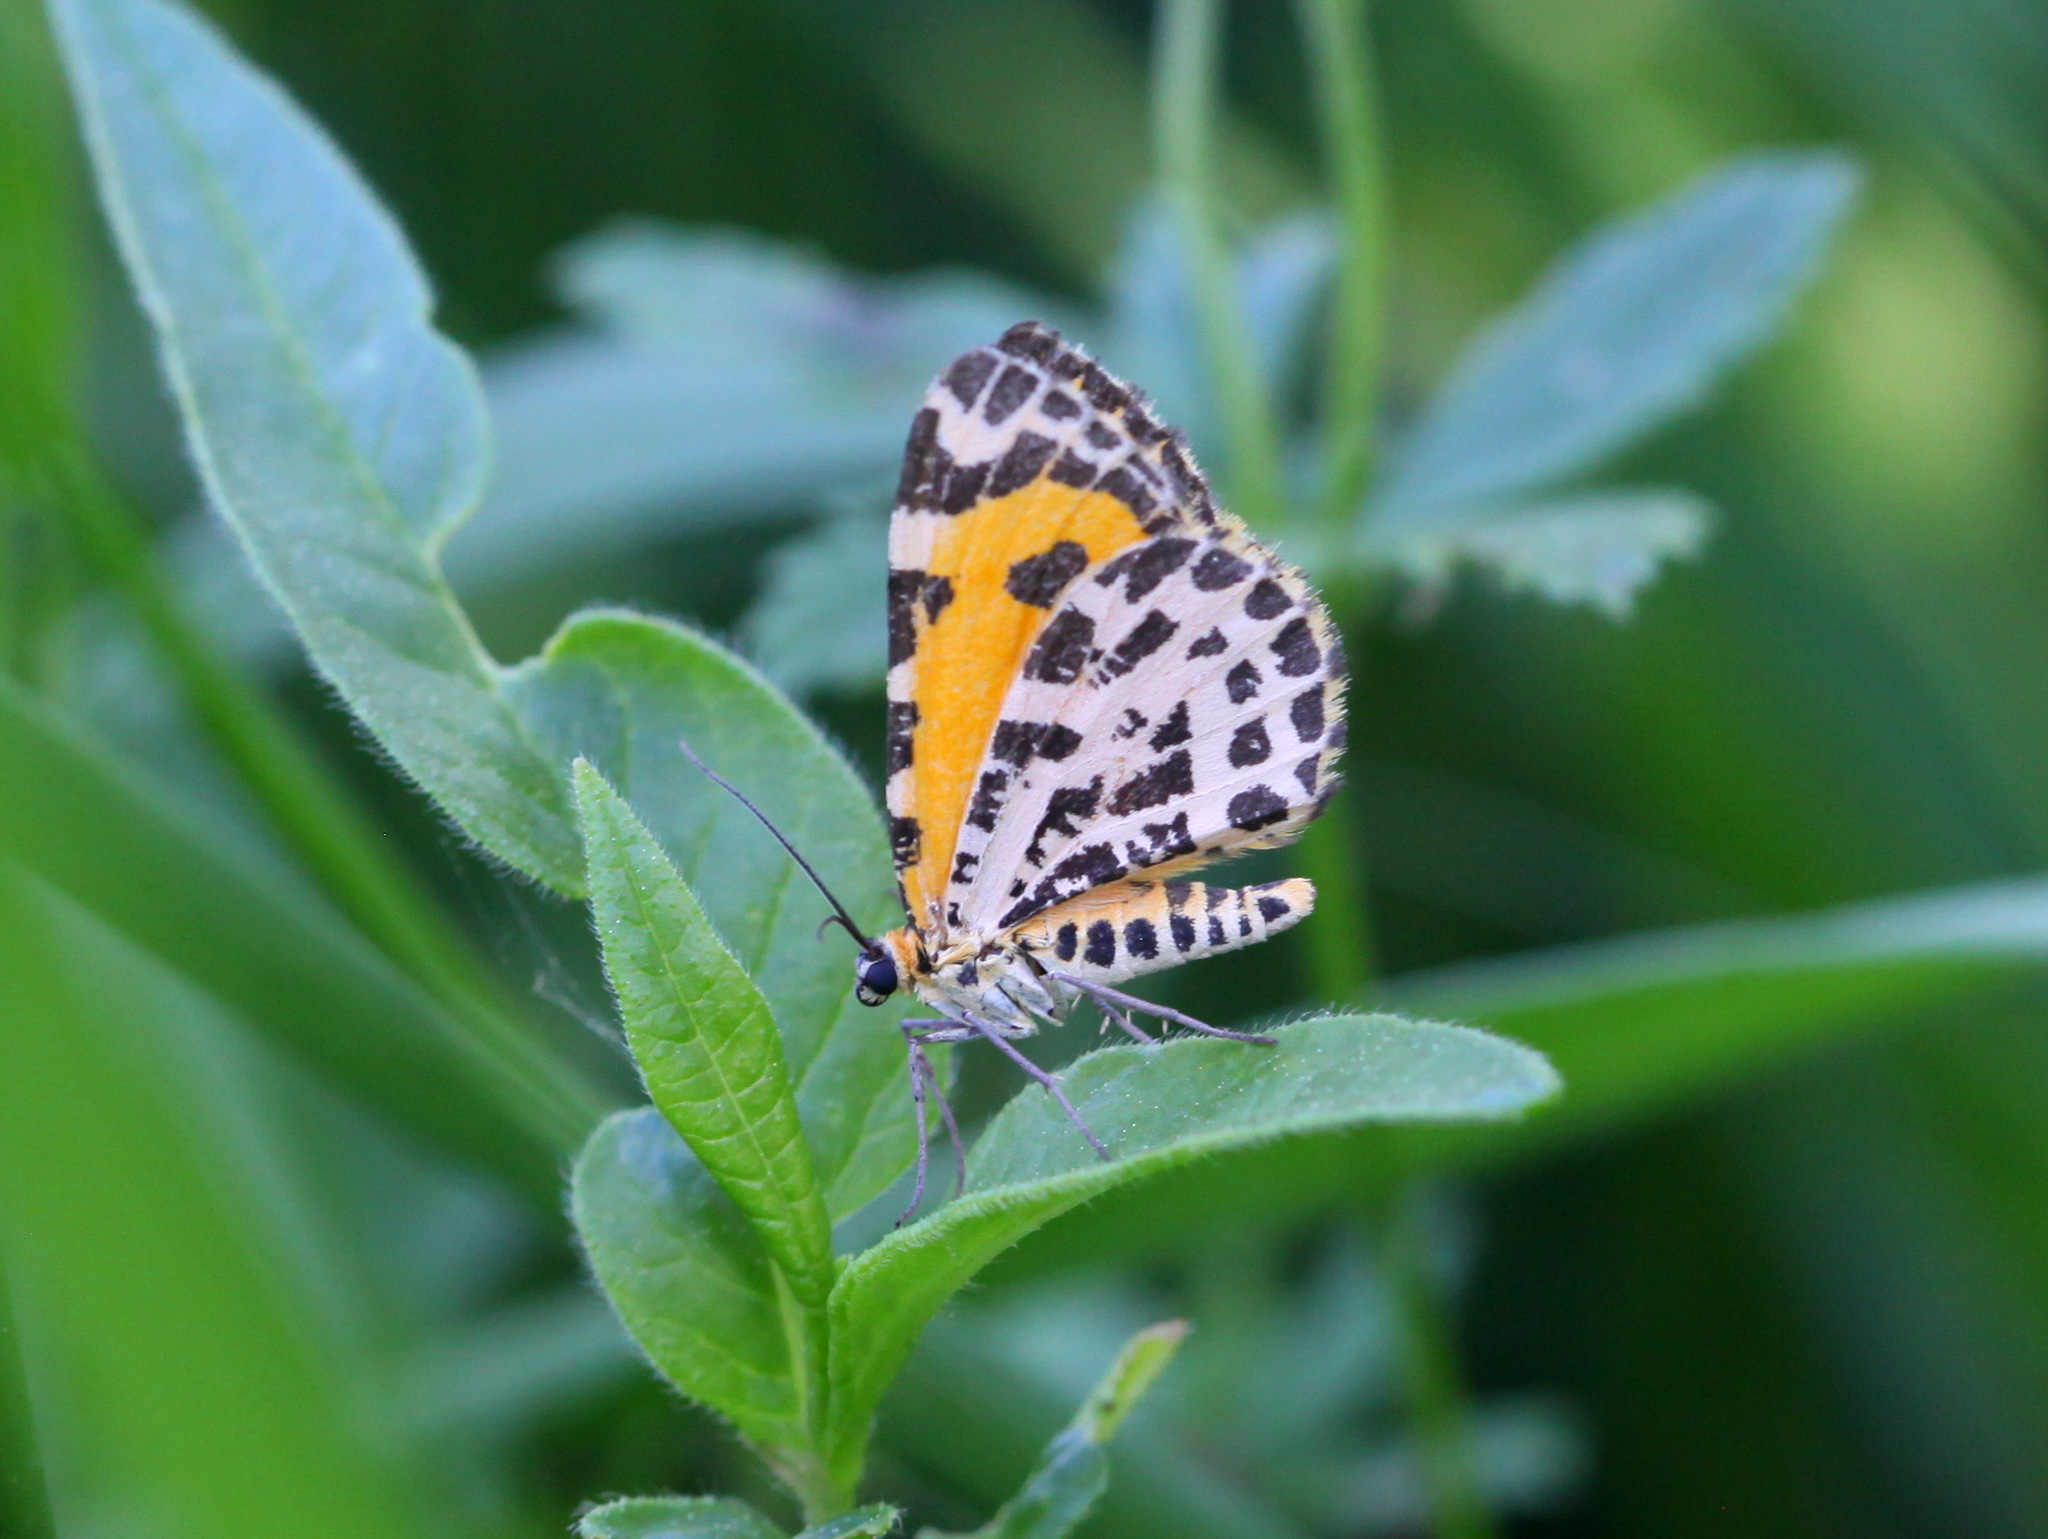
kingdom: Animalia
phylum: Arthropoda
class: Insecta
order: Lepidoptera
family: Geometridae
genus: Stamnodes
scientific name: Stamnodes danilovi
